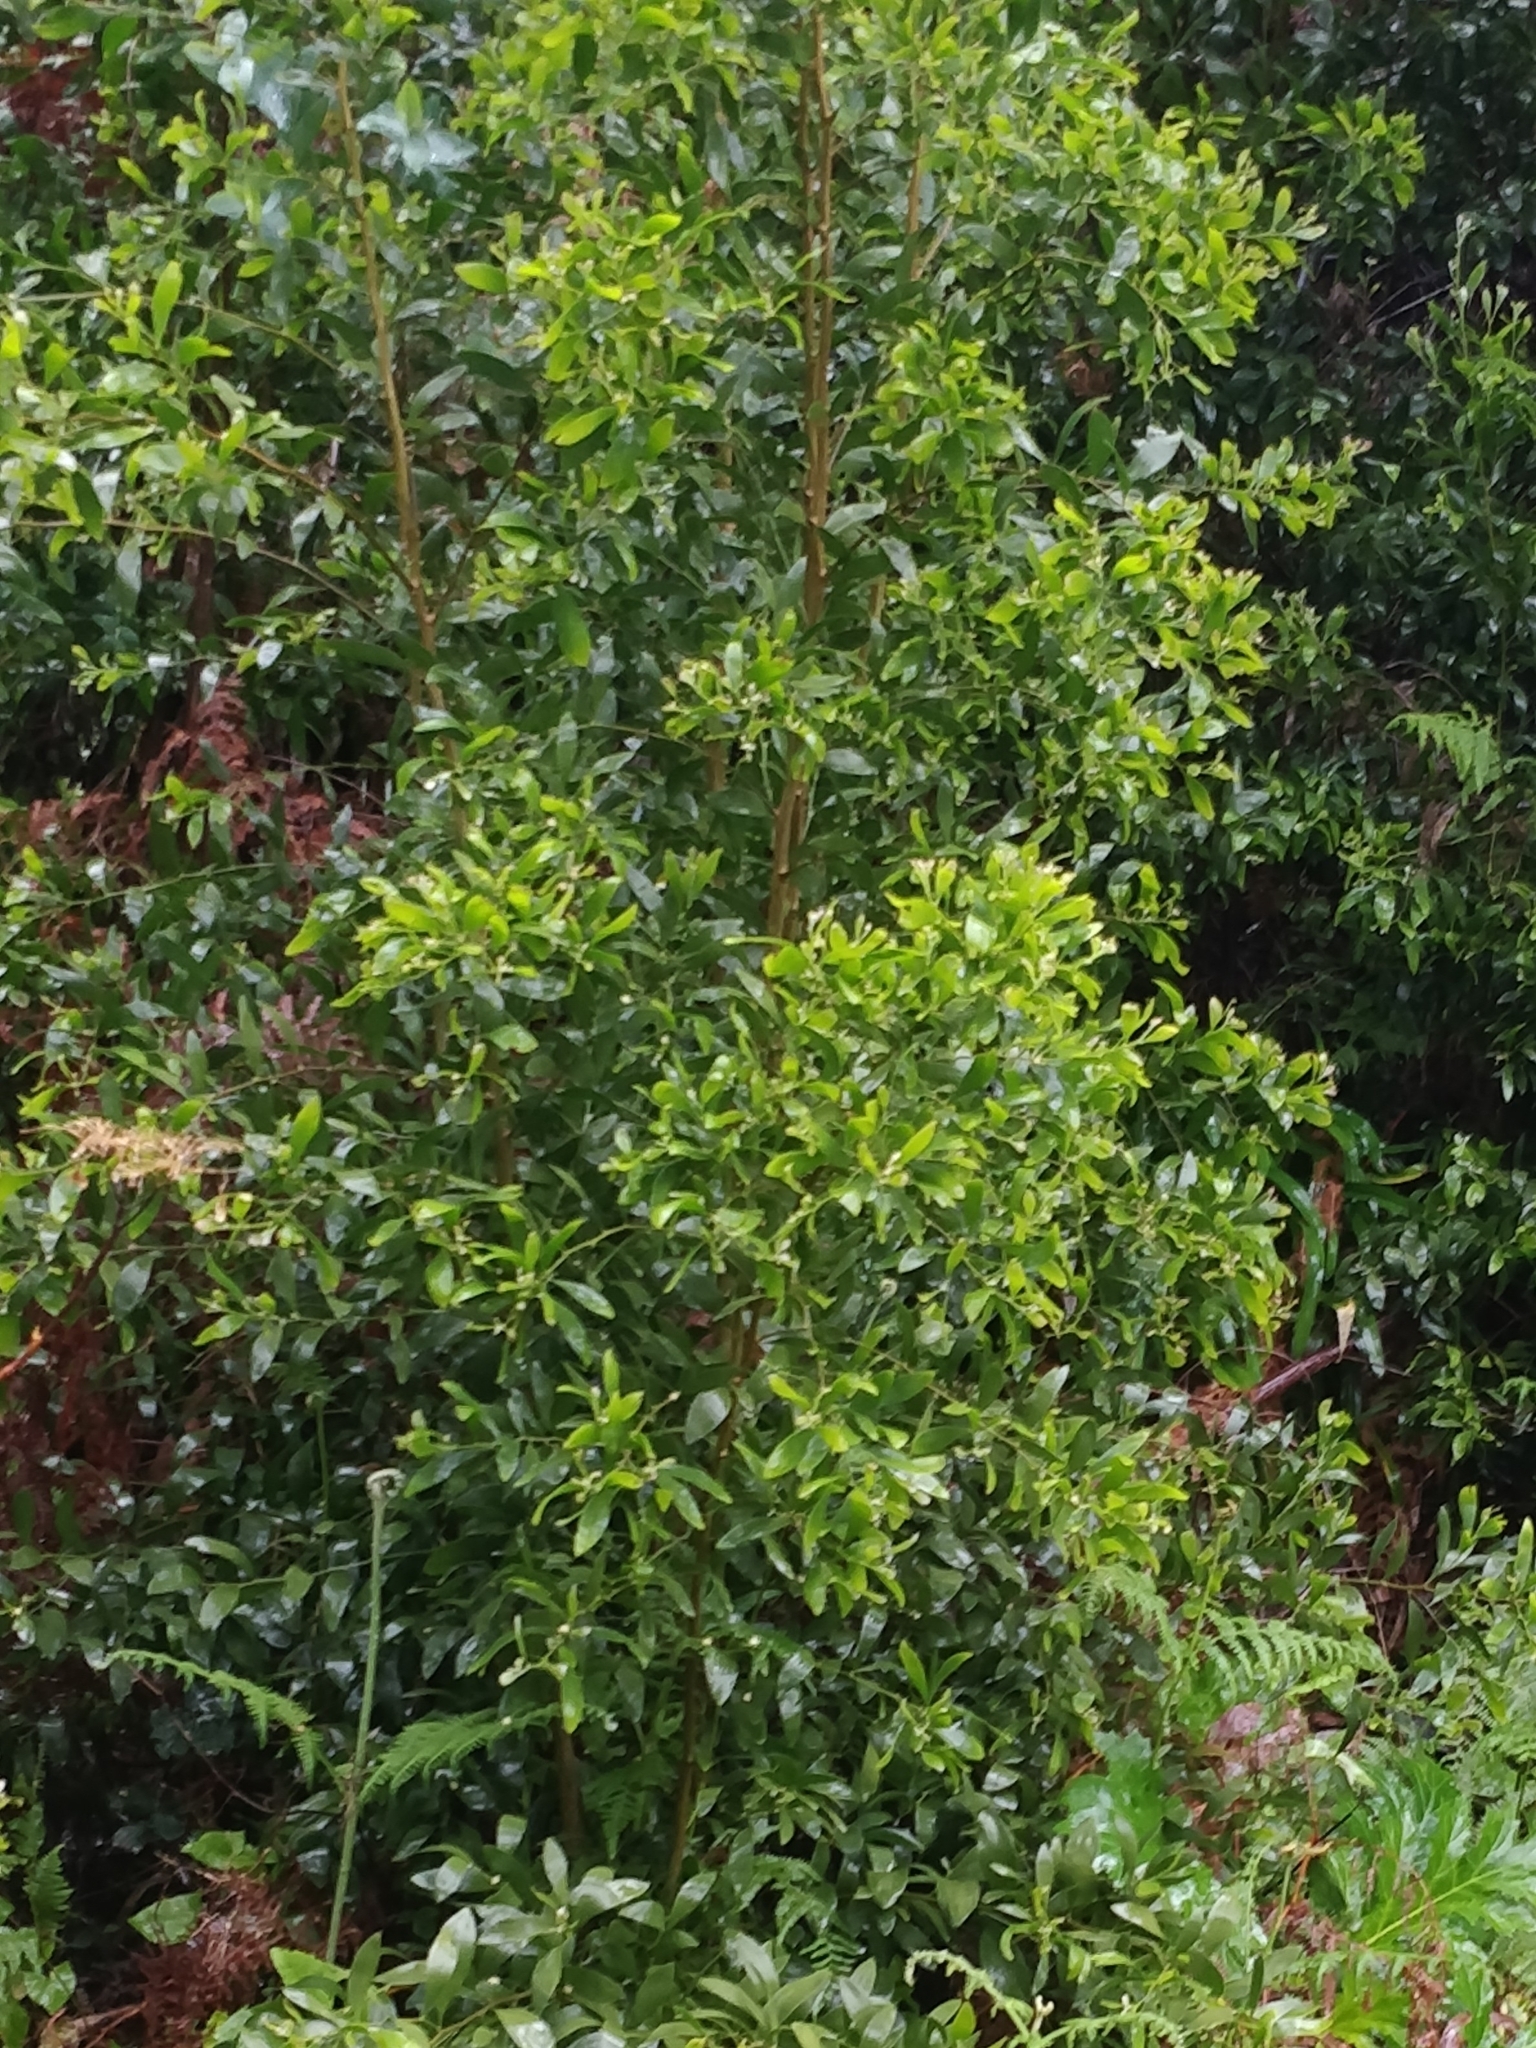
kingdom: Plantae
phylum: Tracheophyta
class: Magnoliopsida
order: Fabales
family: Fabaceae
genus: Acacia
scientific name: Acacia melanoxylon
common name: Blackwood
